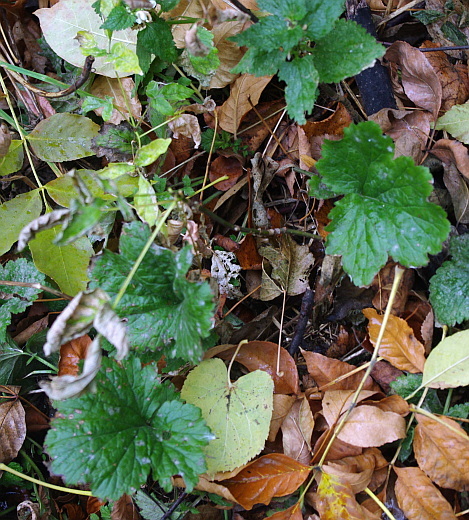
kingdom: Plantae
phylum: Tracheophyta
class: Magnoliopsida
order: Rosales
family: Rosaceae
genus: Geum
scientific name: Geum
